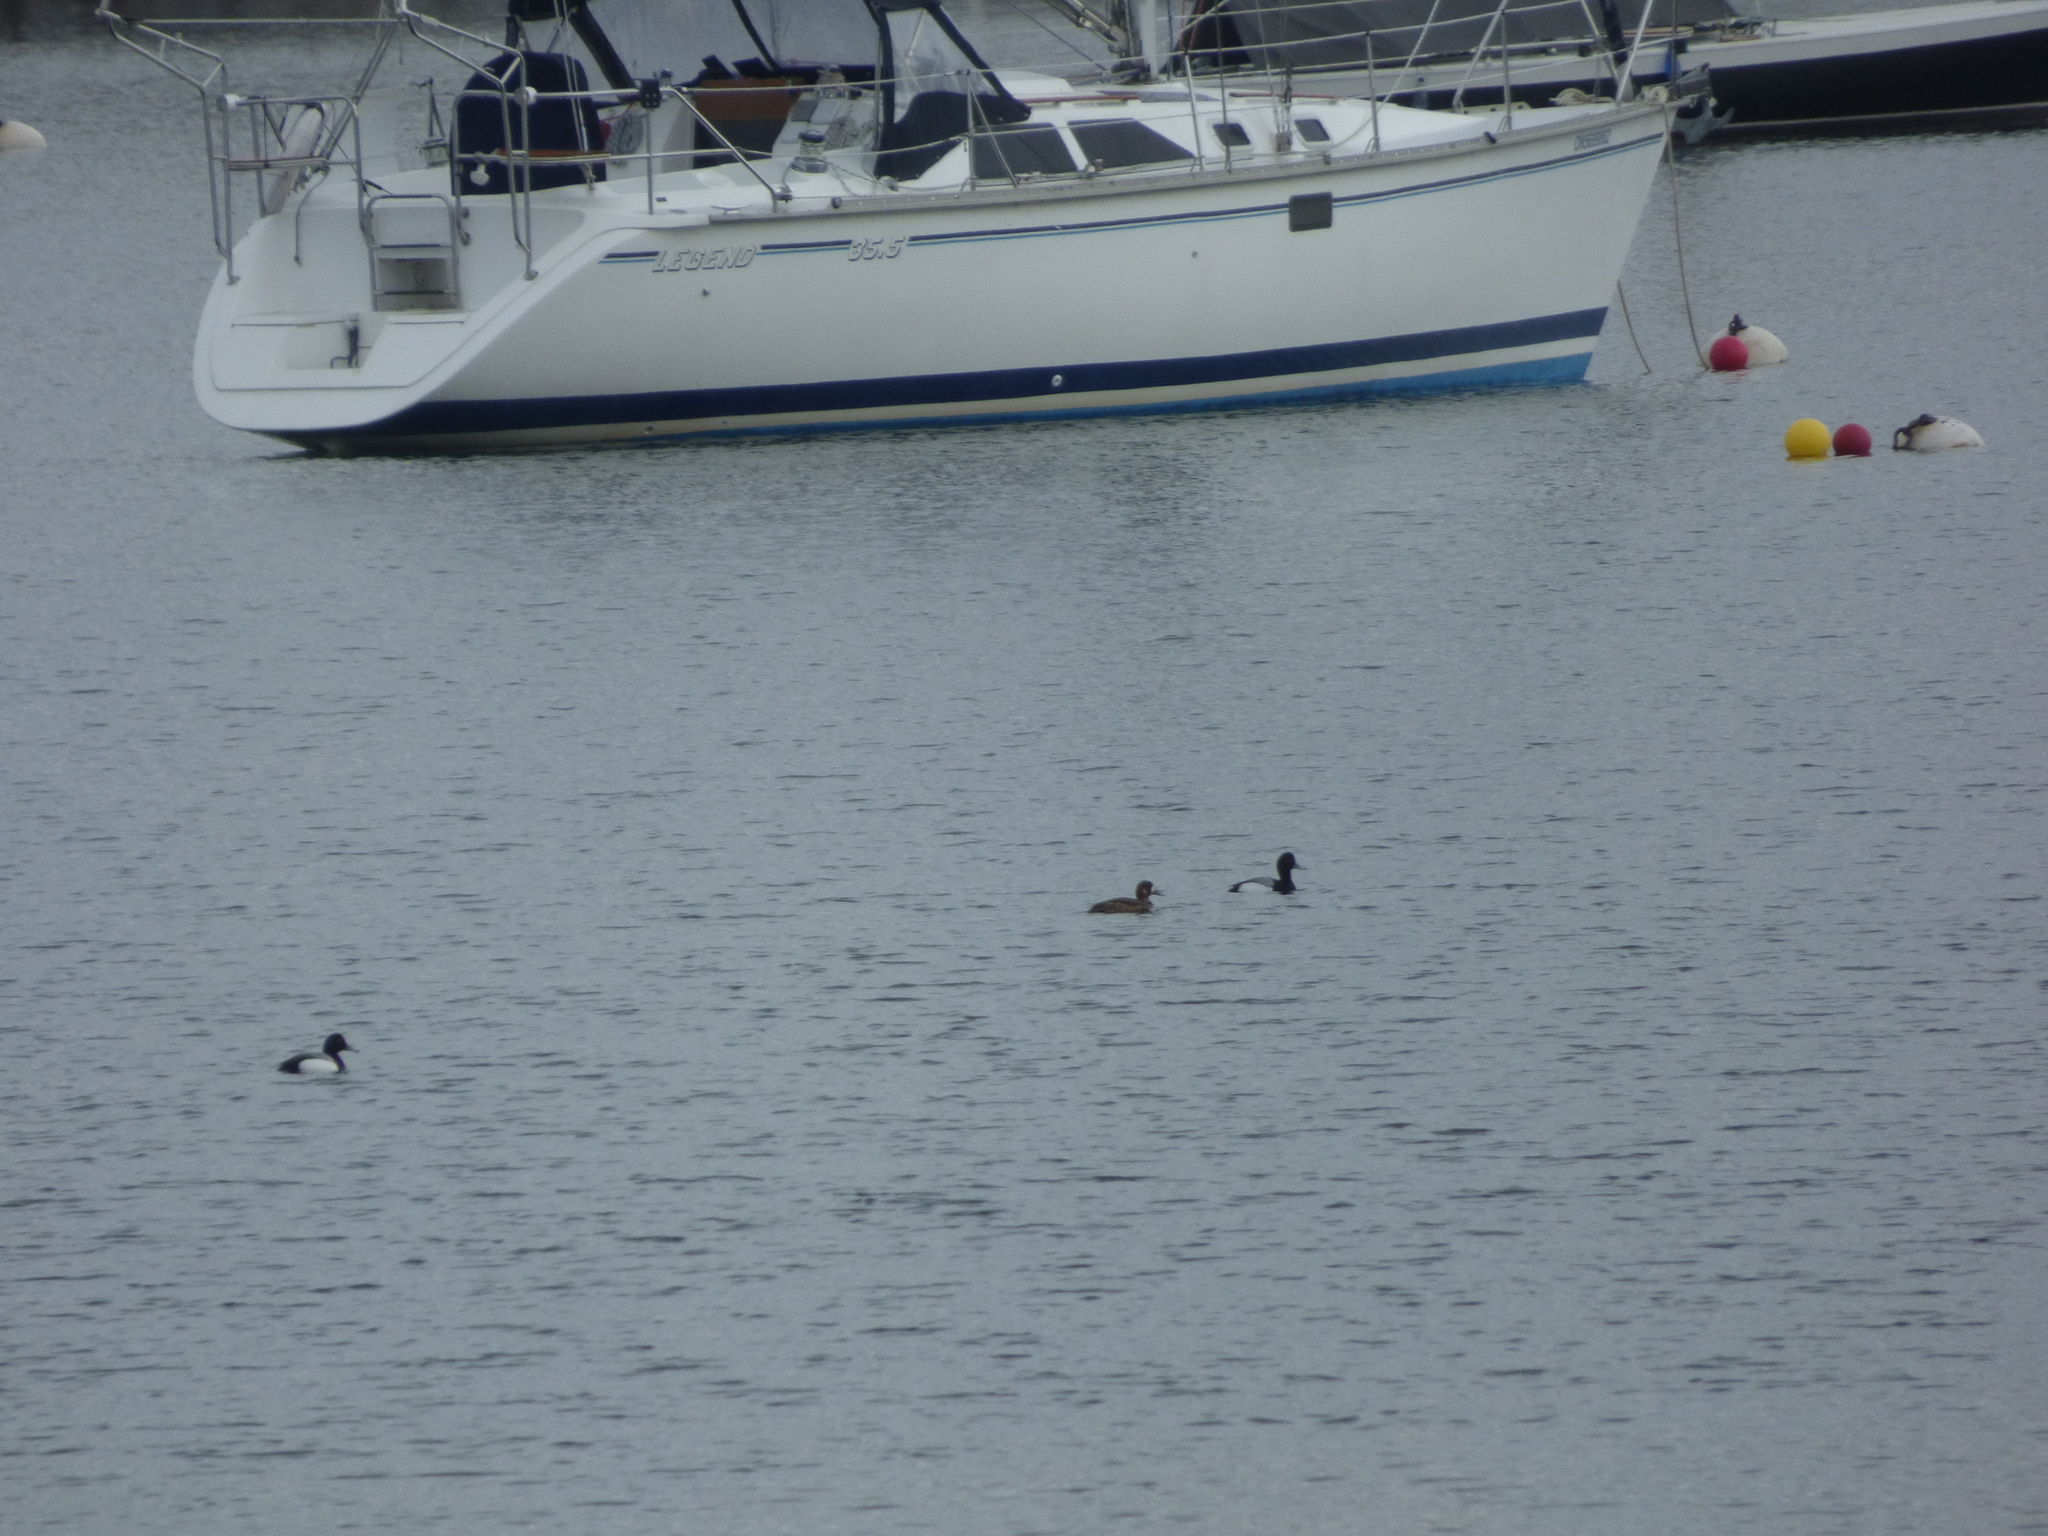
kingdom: Animalia
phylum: Chordata
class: Aves
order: Anseriformes
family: Anatidae
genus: Aythya
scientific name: Aythya affinis
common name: Lesser scaup
